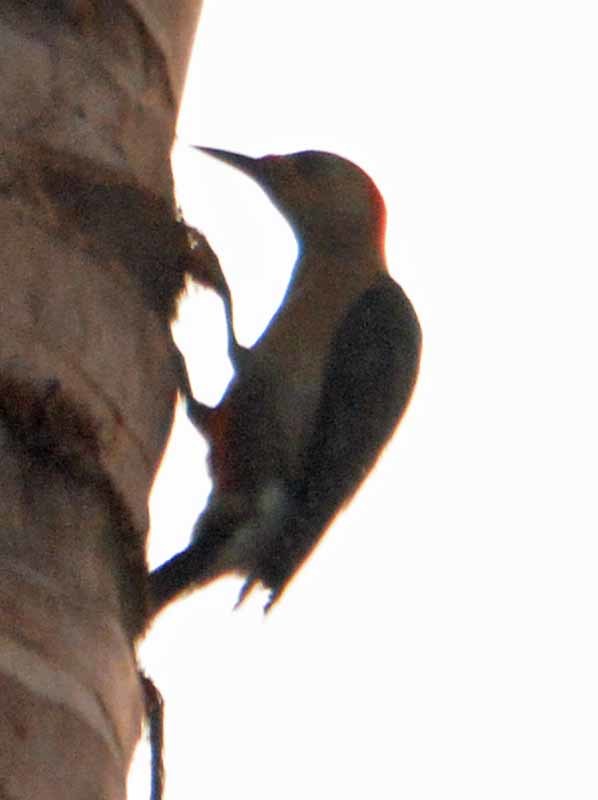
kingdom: Animalia
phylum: Chordata
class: Aves
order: Piciformes
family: Picidae
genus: Melanerpes
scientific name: Melanerpes aurifrons
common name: Golden-fronted woodpecker
